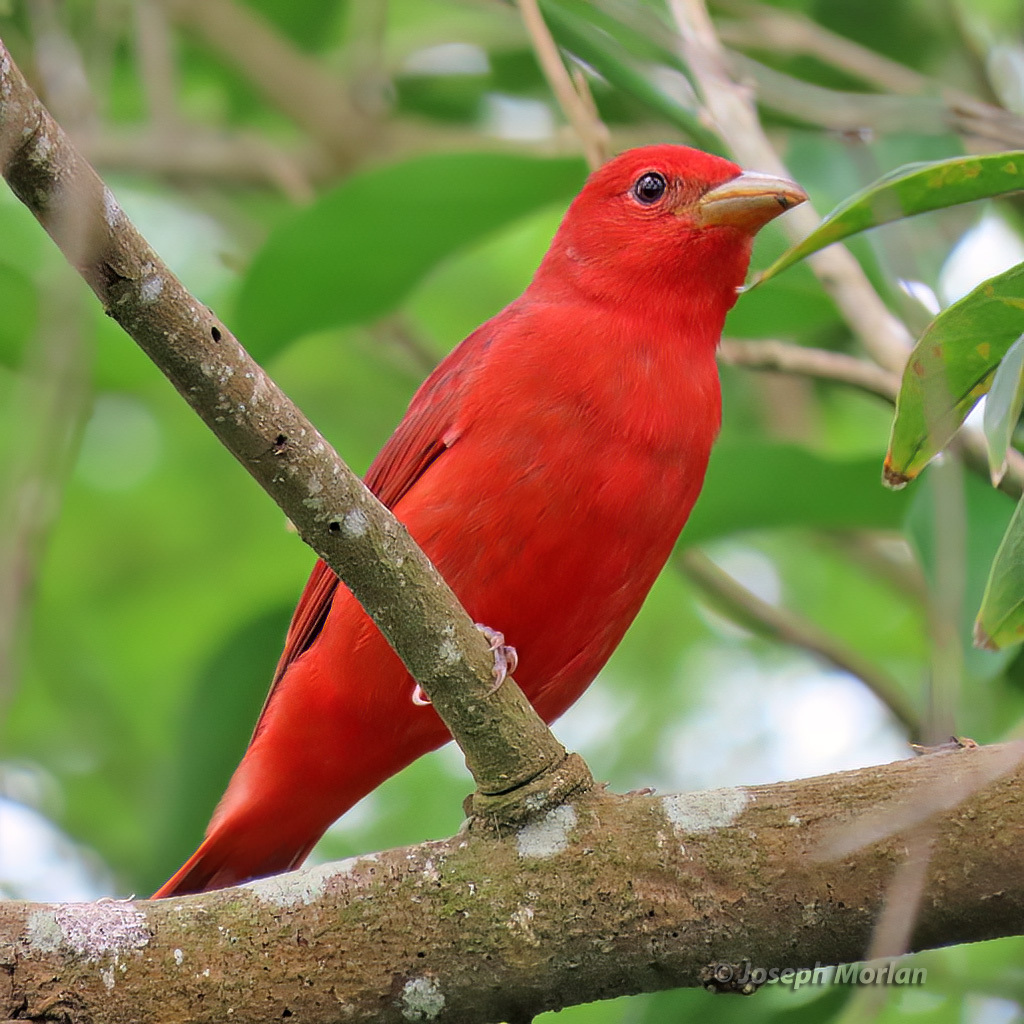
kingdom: Animalia
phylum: Chordata
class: Aves
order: Passeriformes
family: Cardinalidae
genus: Piranga
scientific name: Piranga rubra
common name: Summer tanager
